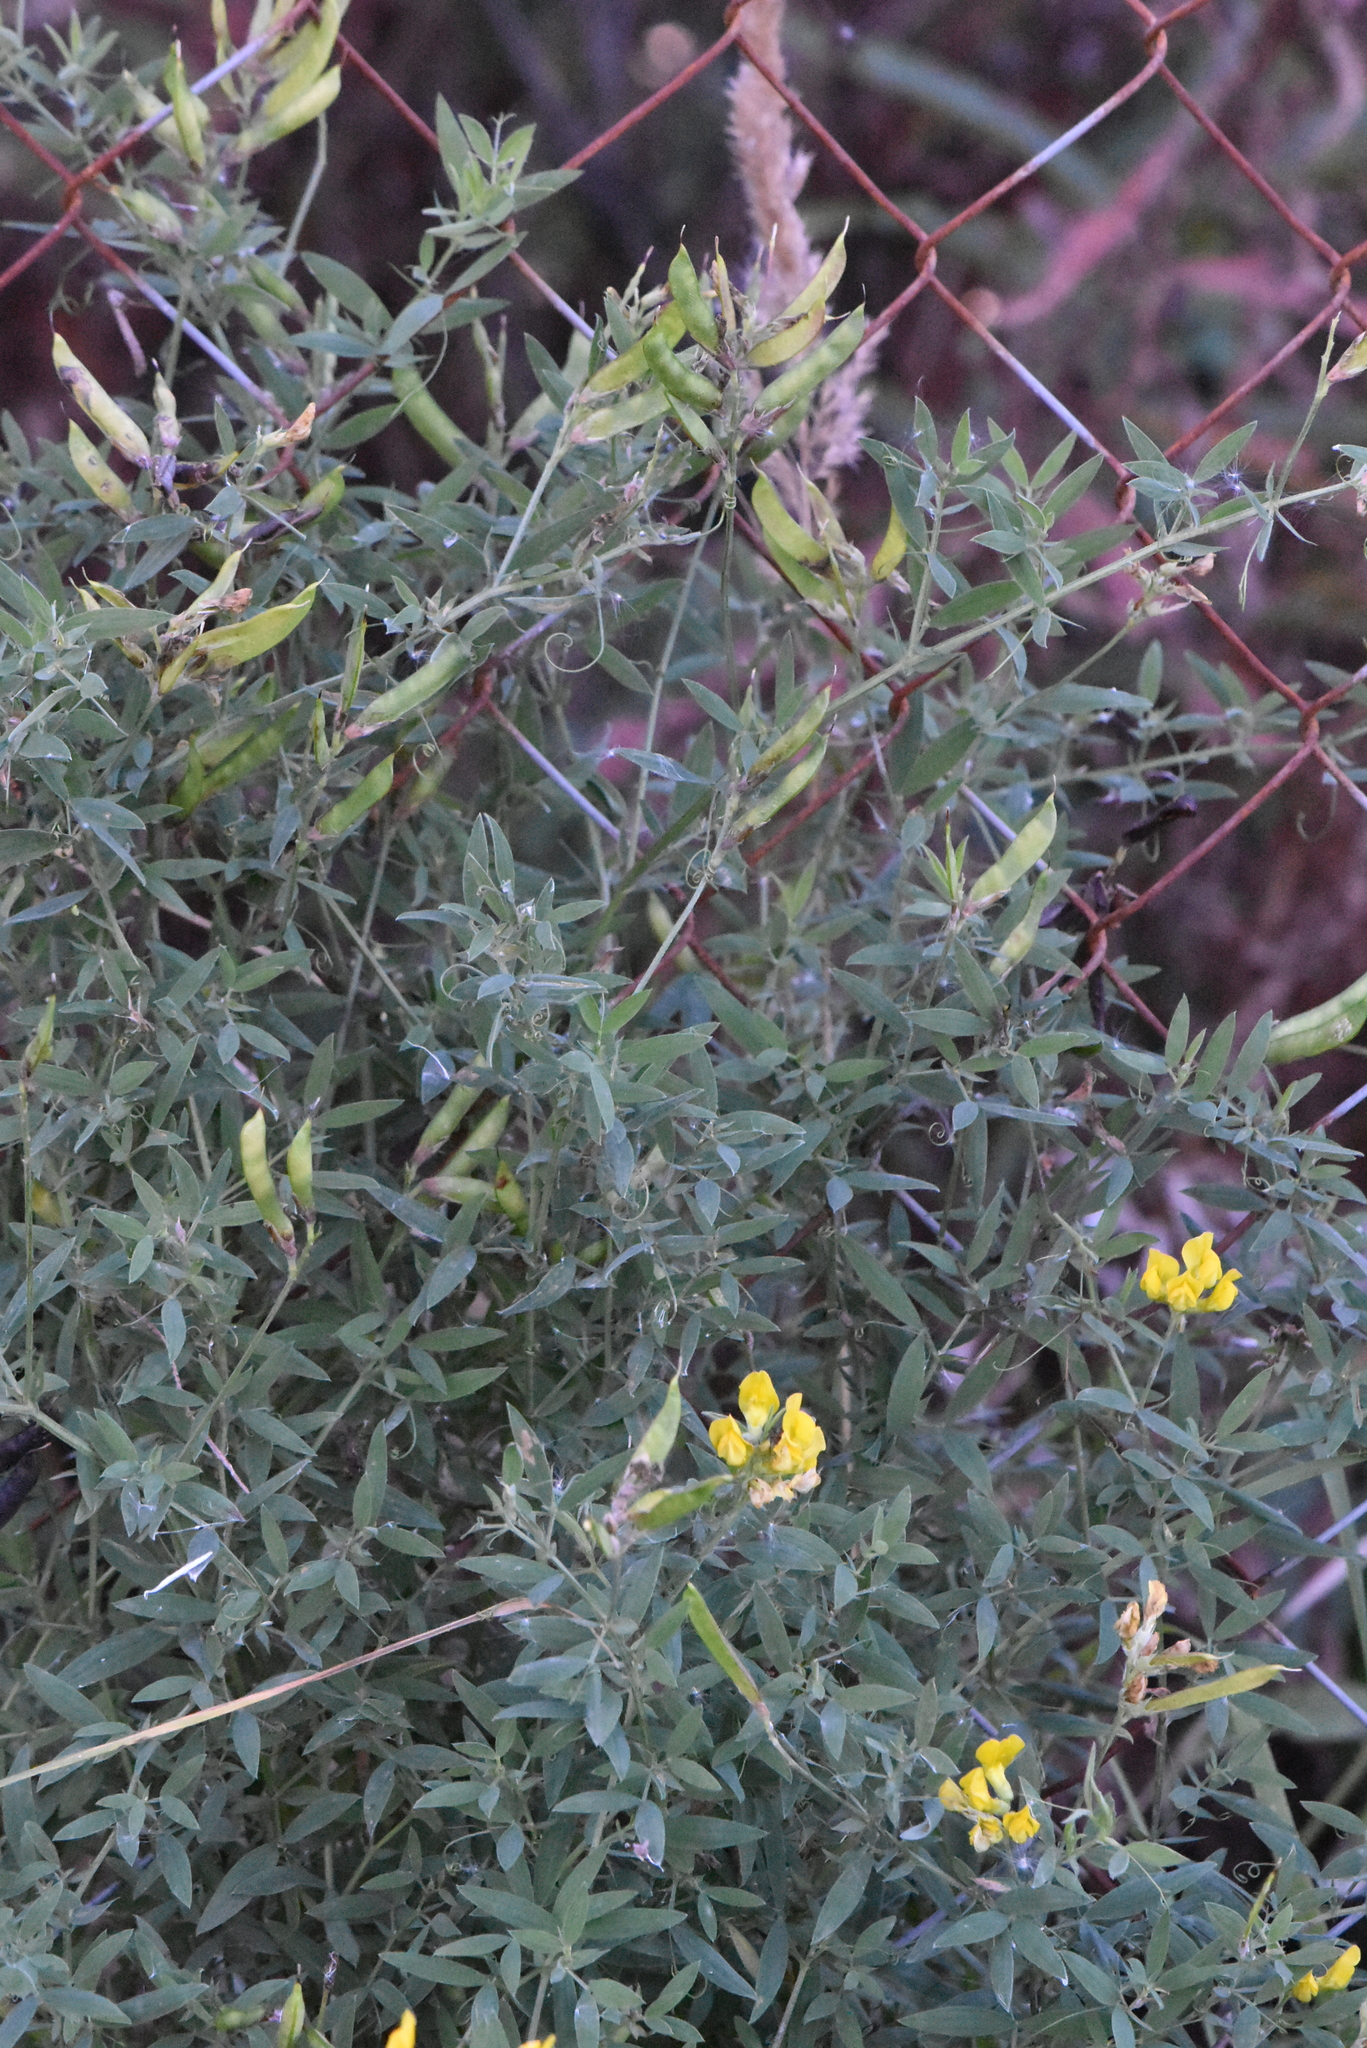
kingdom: Plantae
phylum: Tracheophyta
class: Magnoliopsida
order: Fabales
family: Fabaceae
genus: Lathyrus
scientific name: Lathyrus pratensis
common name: Meadow vetchling
